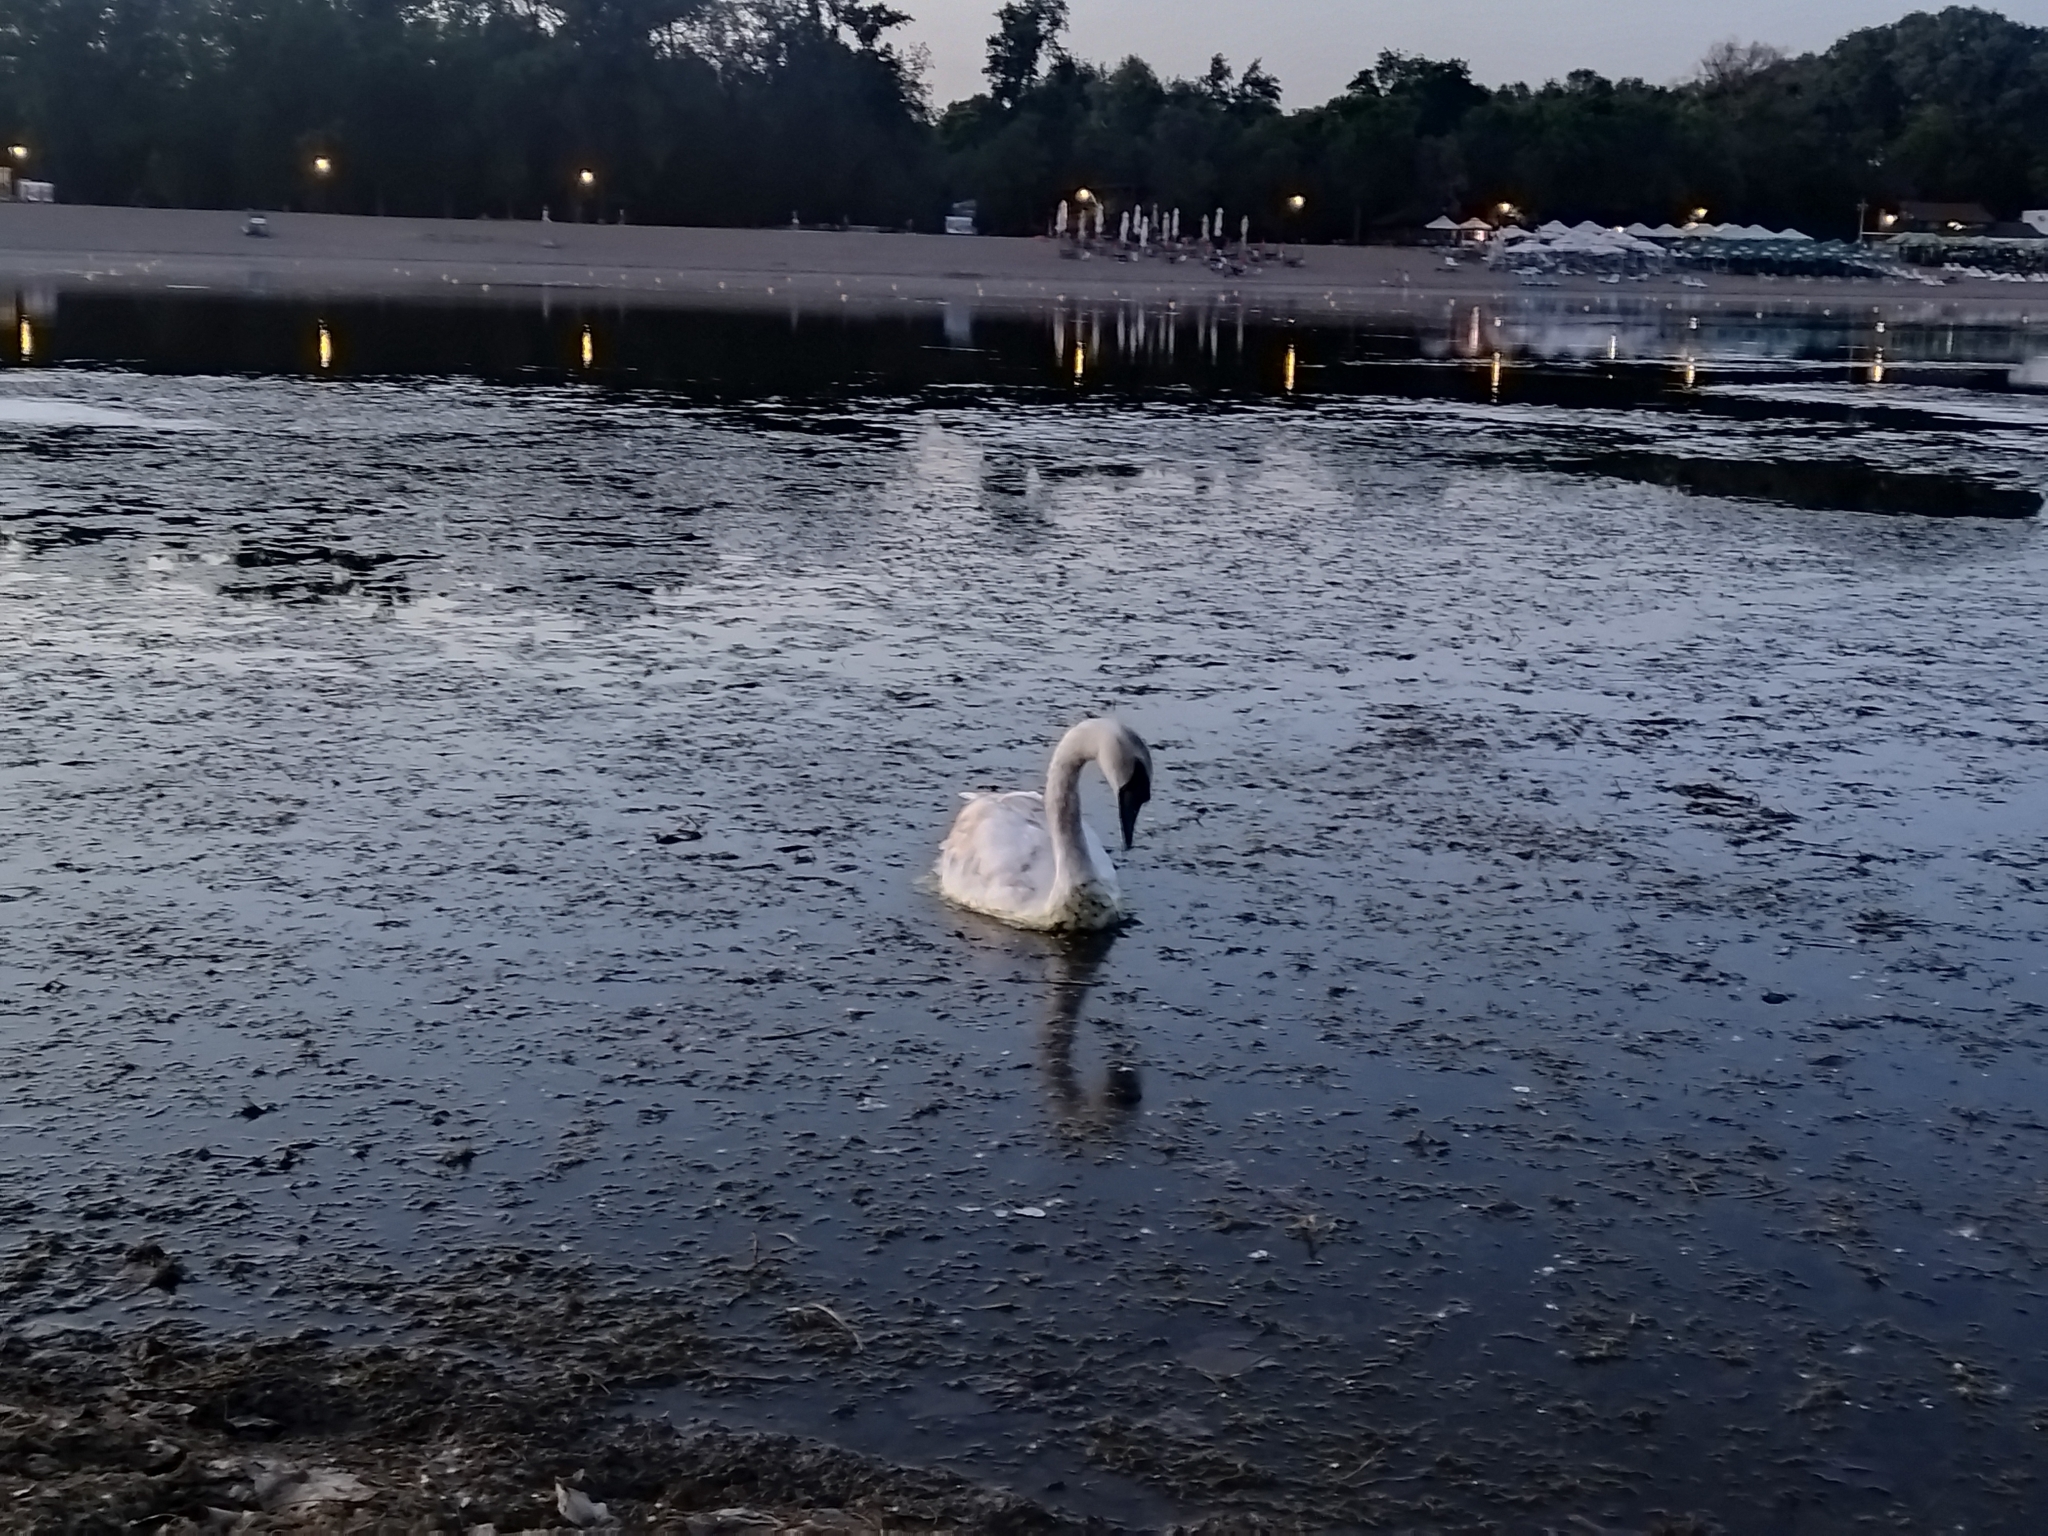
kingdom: Animalia
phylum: Chordata
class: Aves
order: Anseriformes
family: Anatidae
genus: Cygnus
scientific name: Cygnus olor
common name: Mute swan
